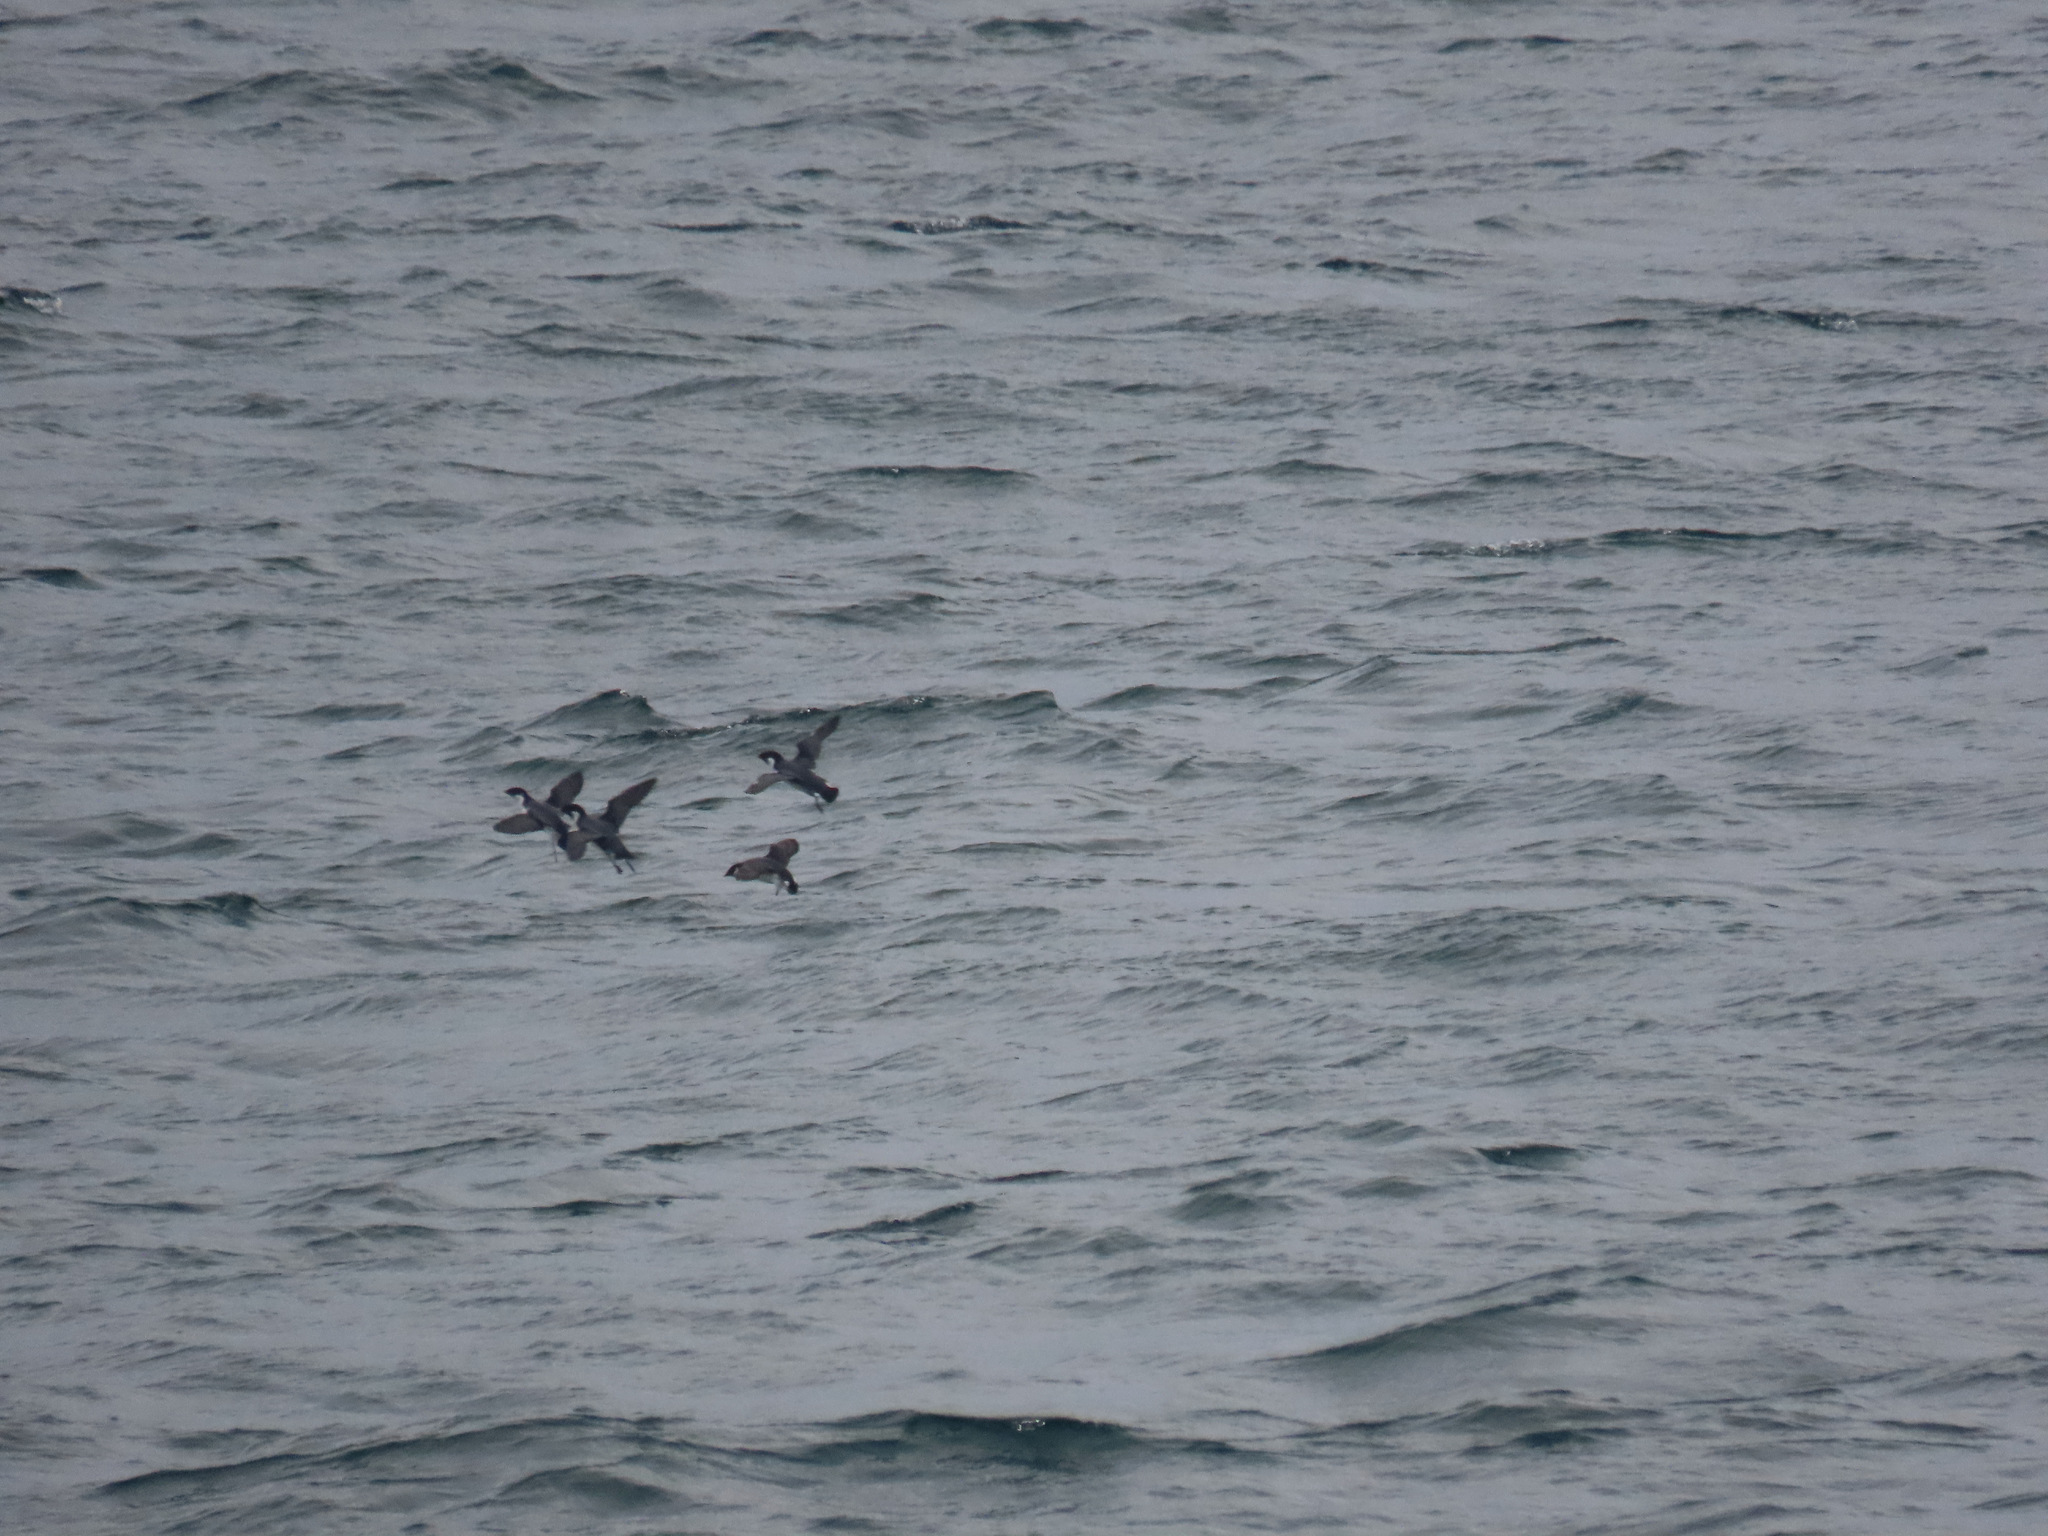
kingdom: Animalia
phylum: Chordata
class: Aves
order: Charadriiformes
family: Alcidae
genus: Synthliboramphus
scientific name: Synthliboramphus antiquus
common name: Ancient murrelet
